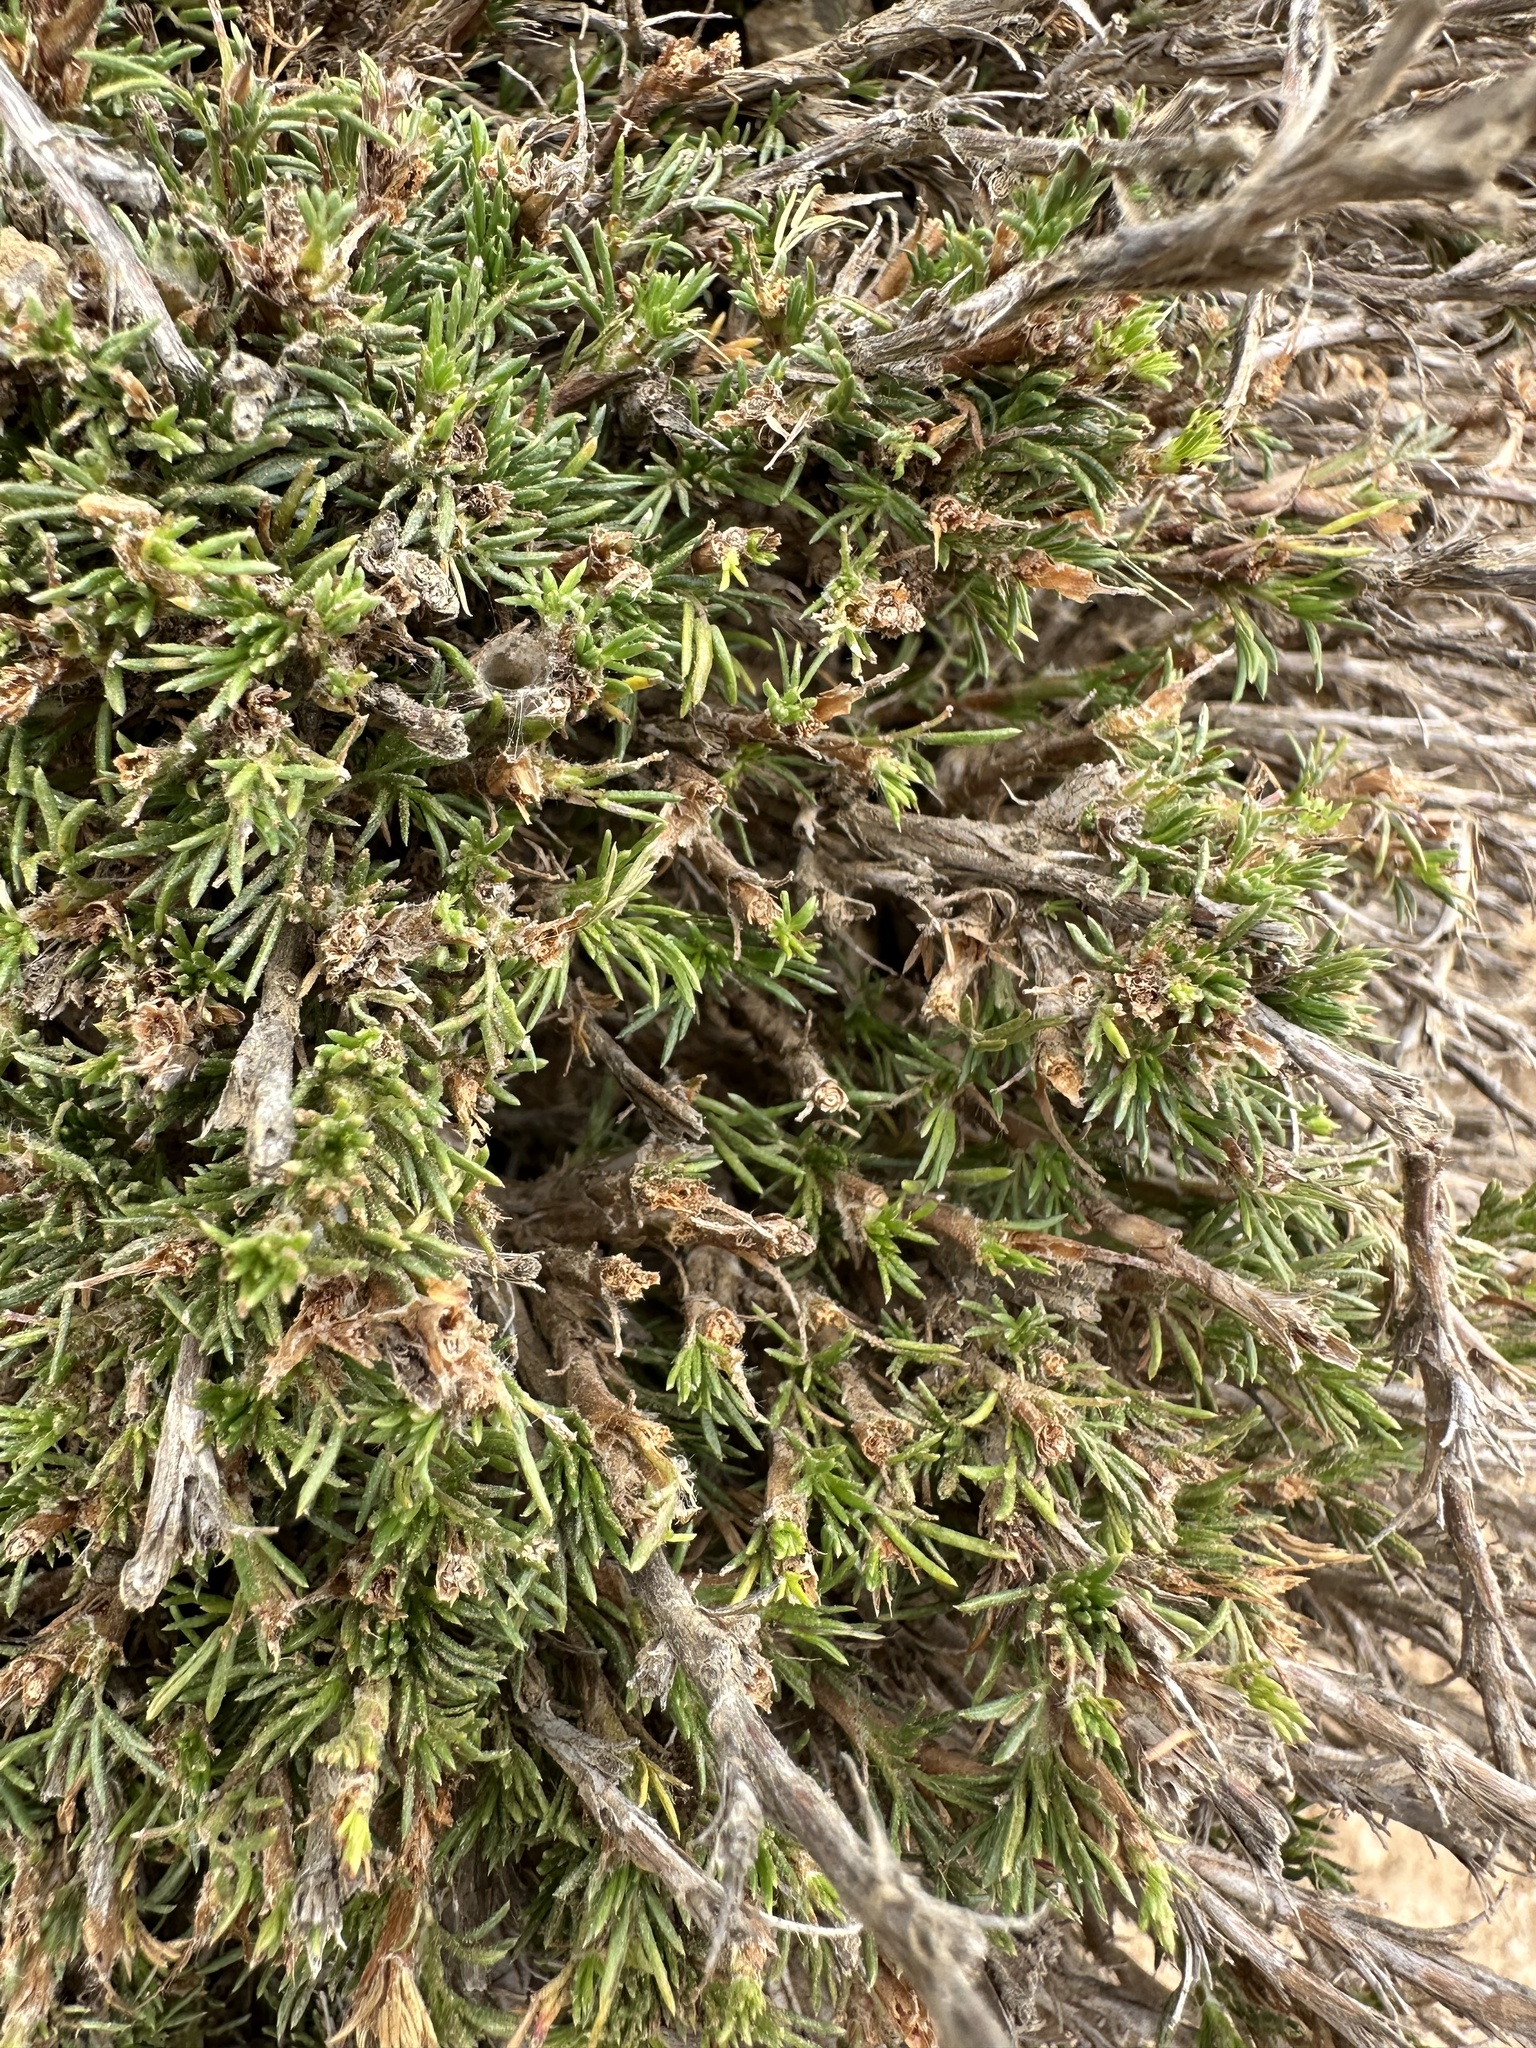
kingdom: Plantae
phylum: Tracheophyta
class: Magnoliopsida
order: Rosales
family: Rosaceae
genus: Margyricarpus
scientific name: Margyricarpus pinnatus
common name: Pearlfruit
